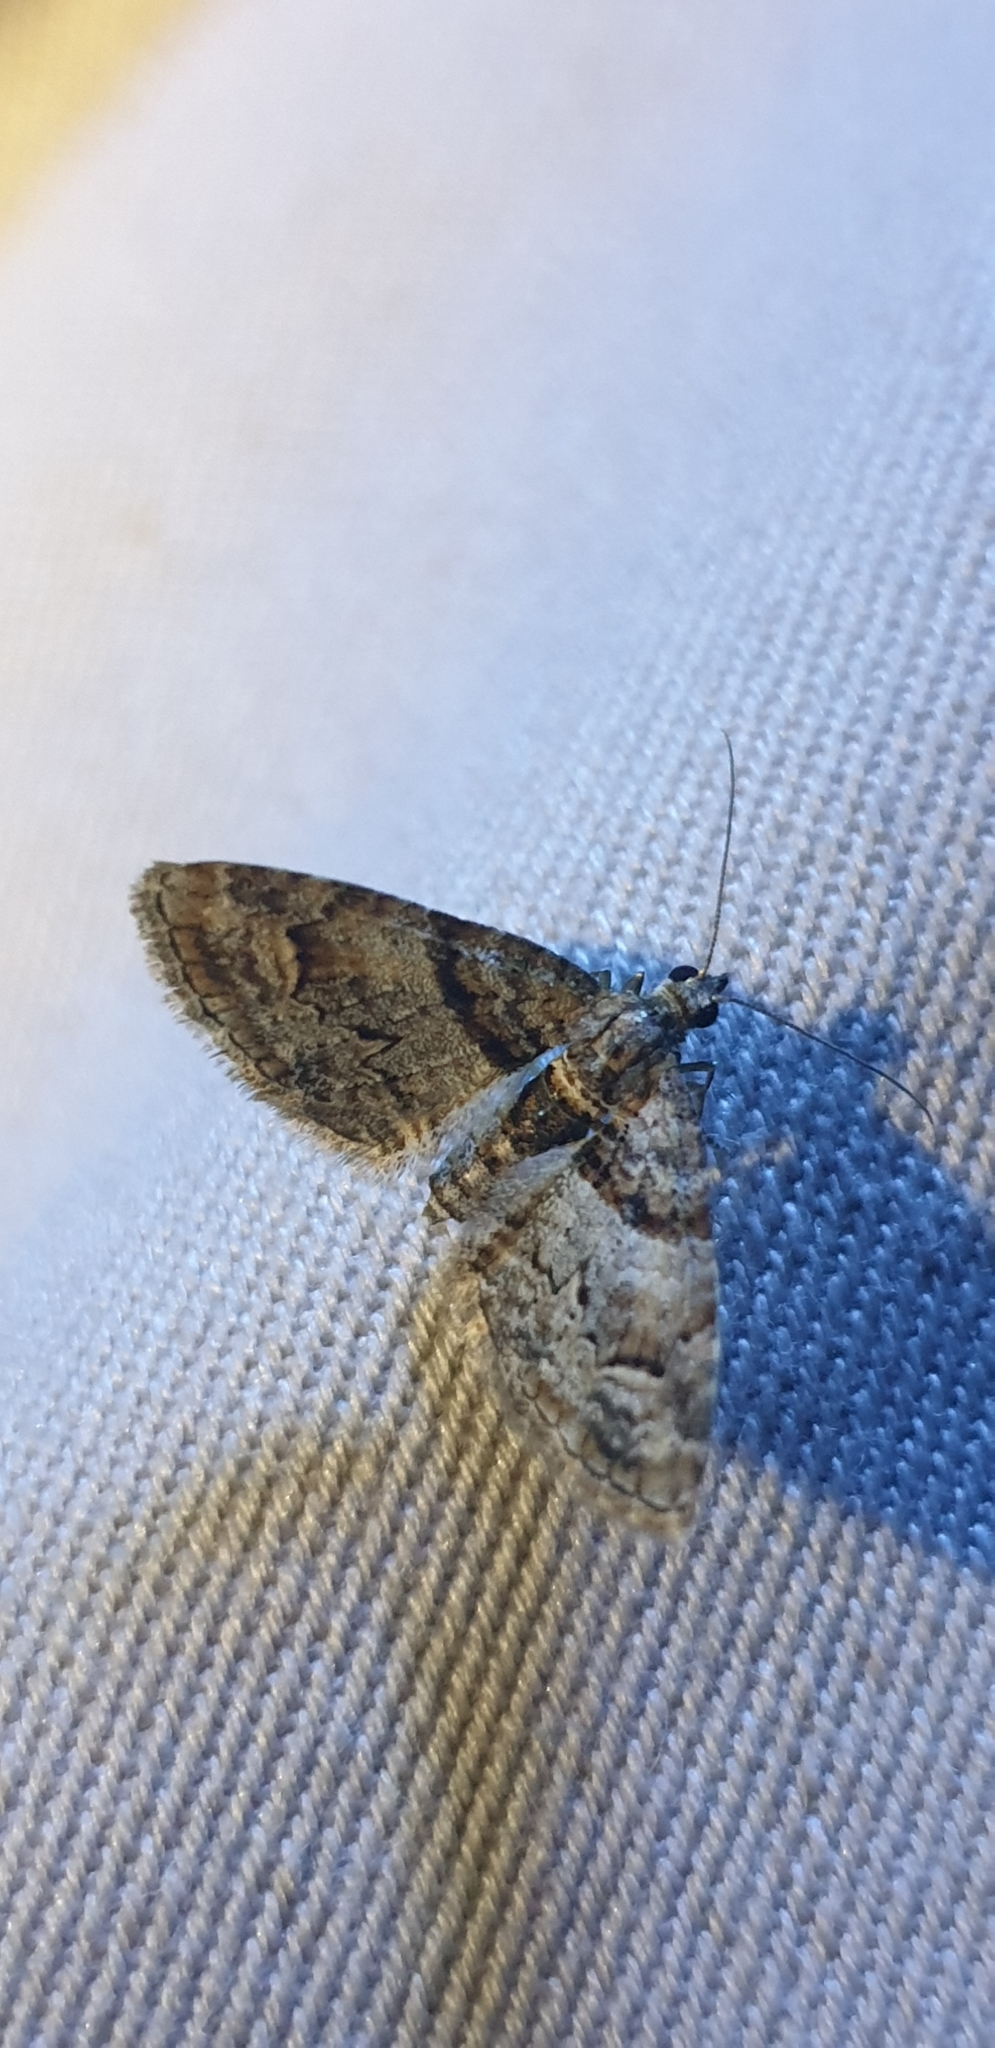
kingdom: Animalia
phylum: Arthropoda
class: Insecta
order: Lepidoptera
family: Geometridae
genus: Phrissogonus
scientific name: Phrissogonus laticostata
